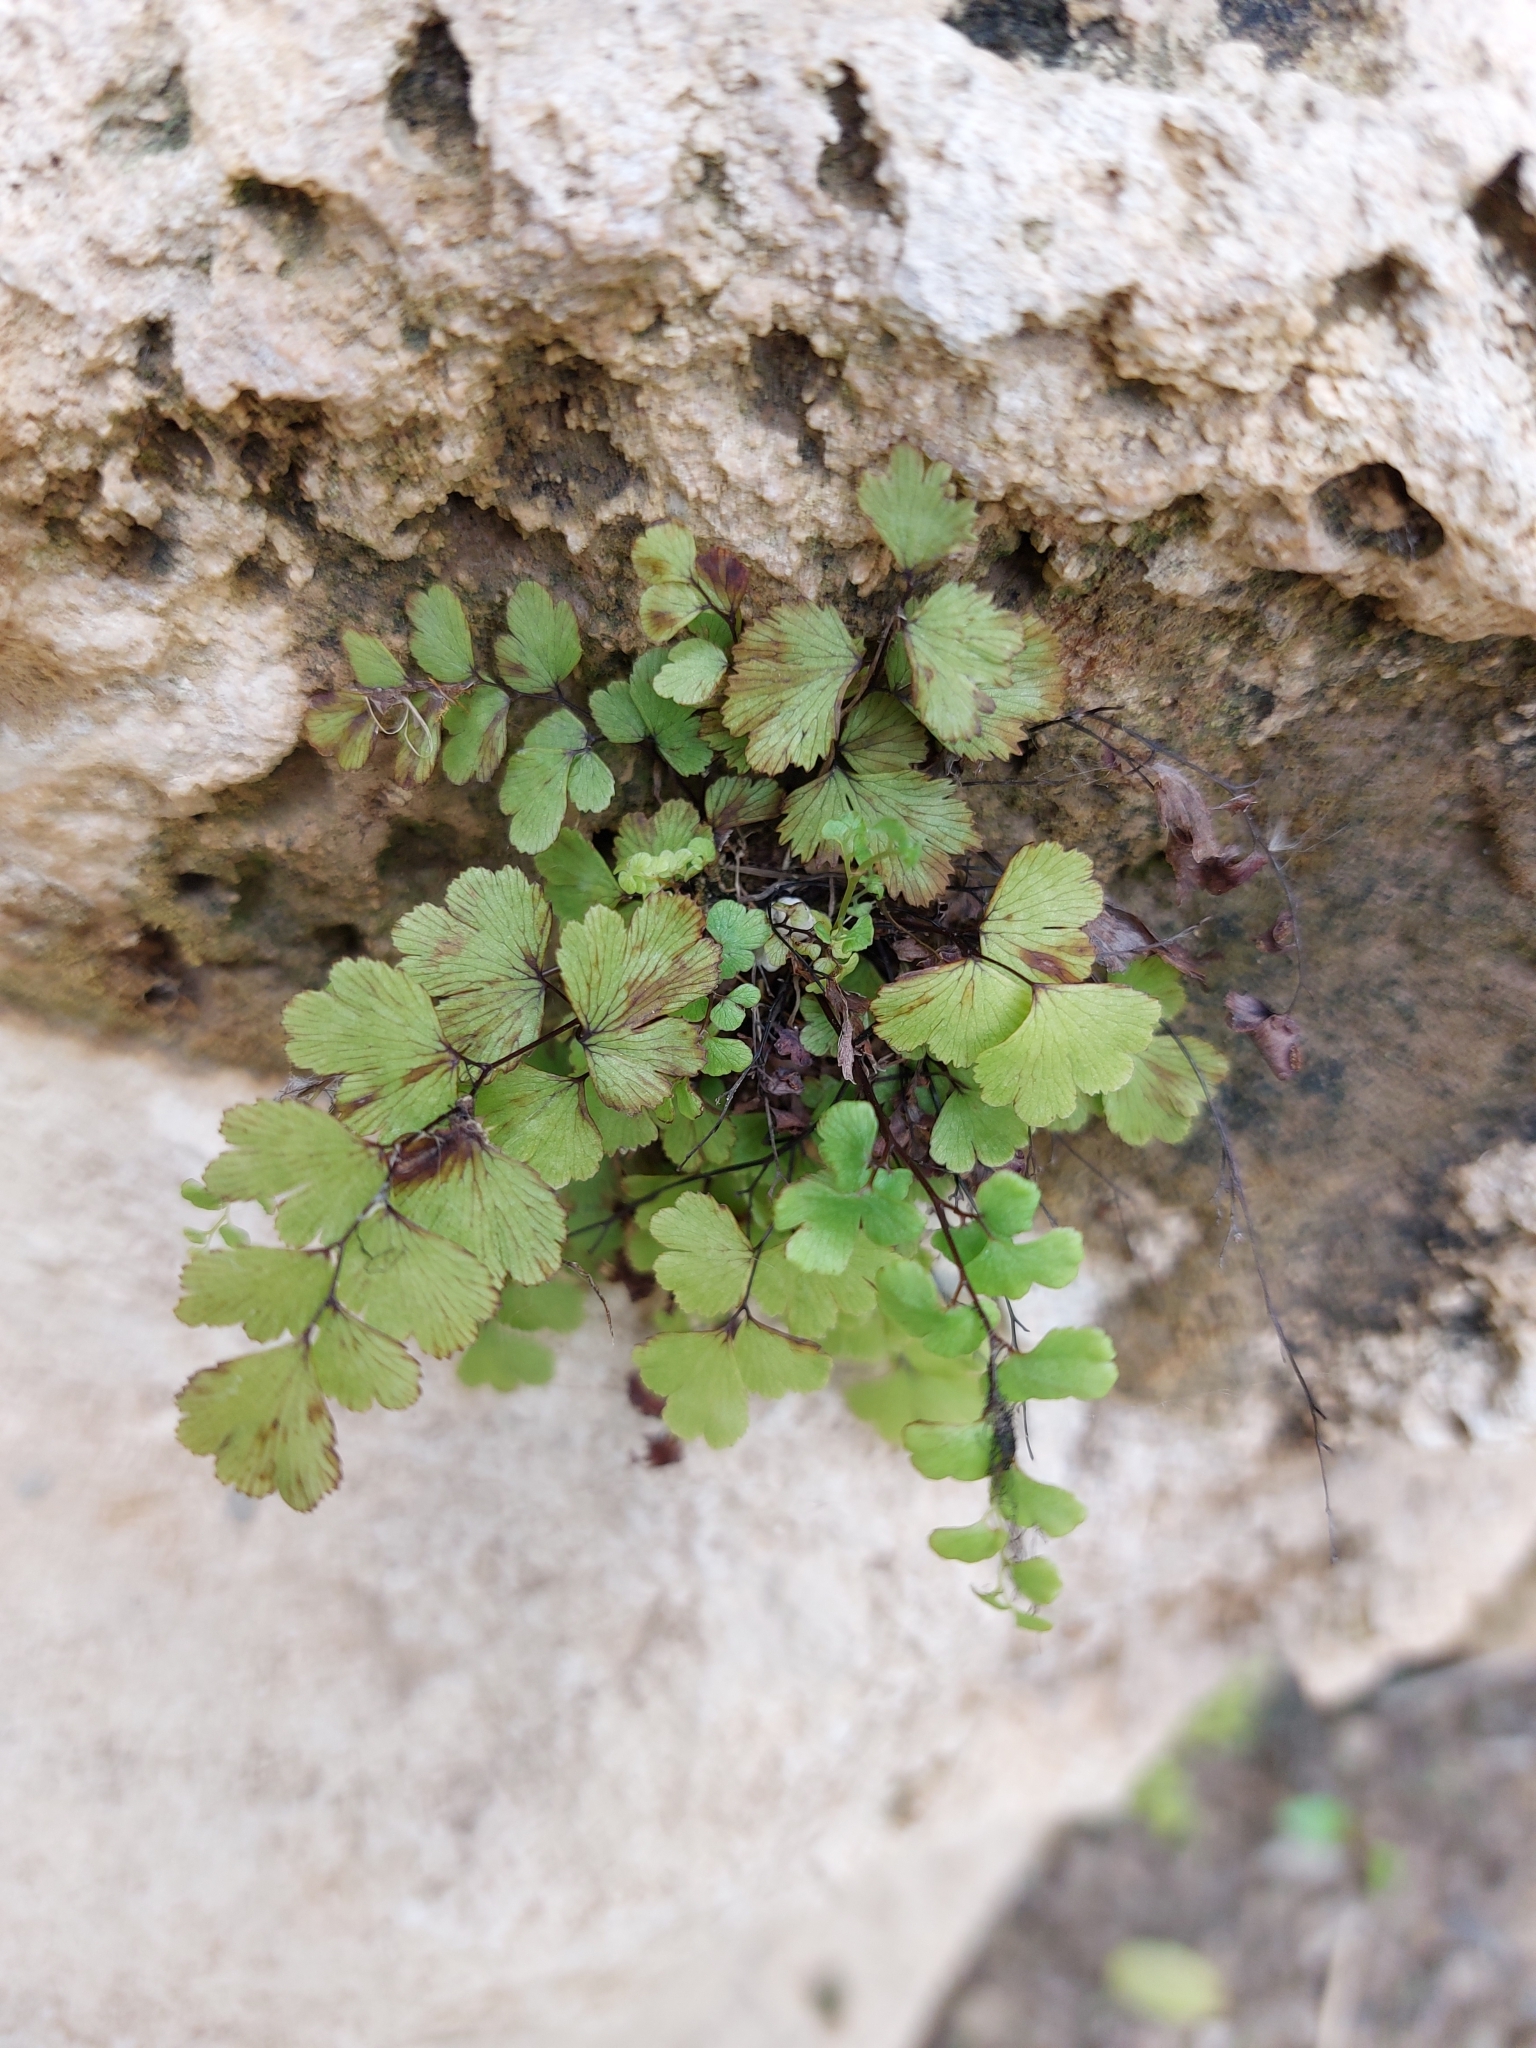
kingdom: Plantae
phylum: Tracheophyta
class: Polypodiopsida
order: Polypodiales
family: Pteridaceae
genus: Adiantum
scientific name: Adiantum capillus-veneris
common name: Maidenhair fern
